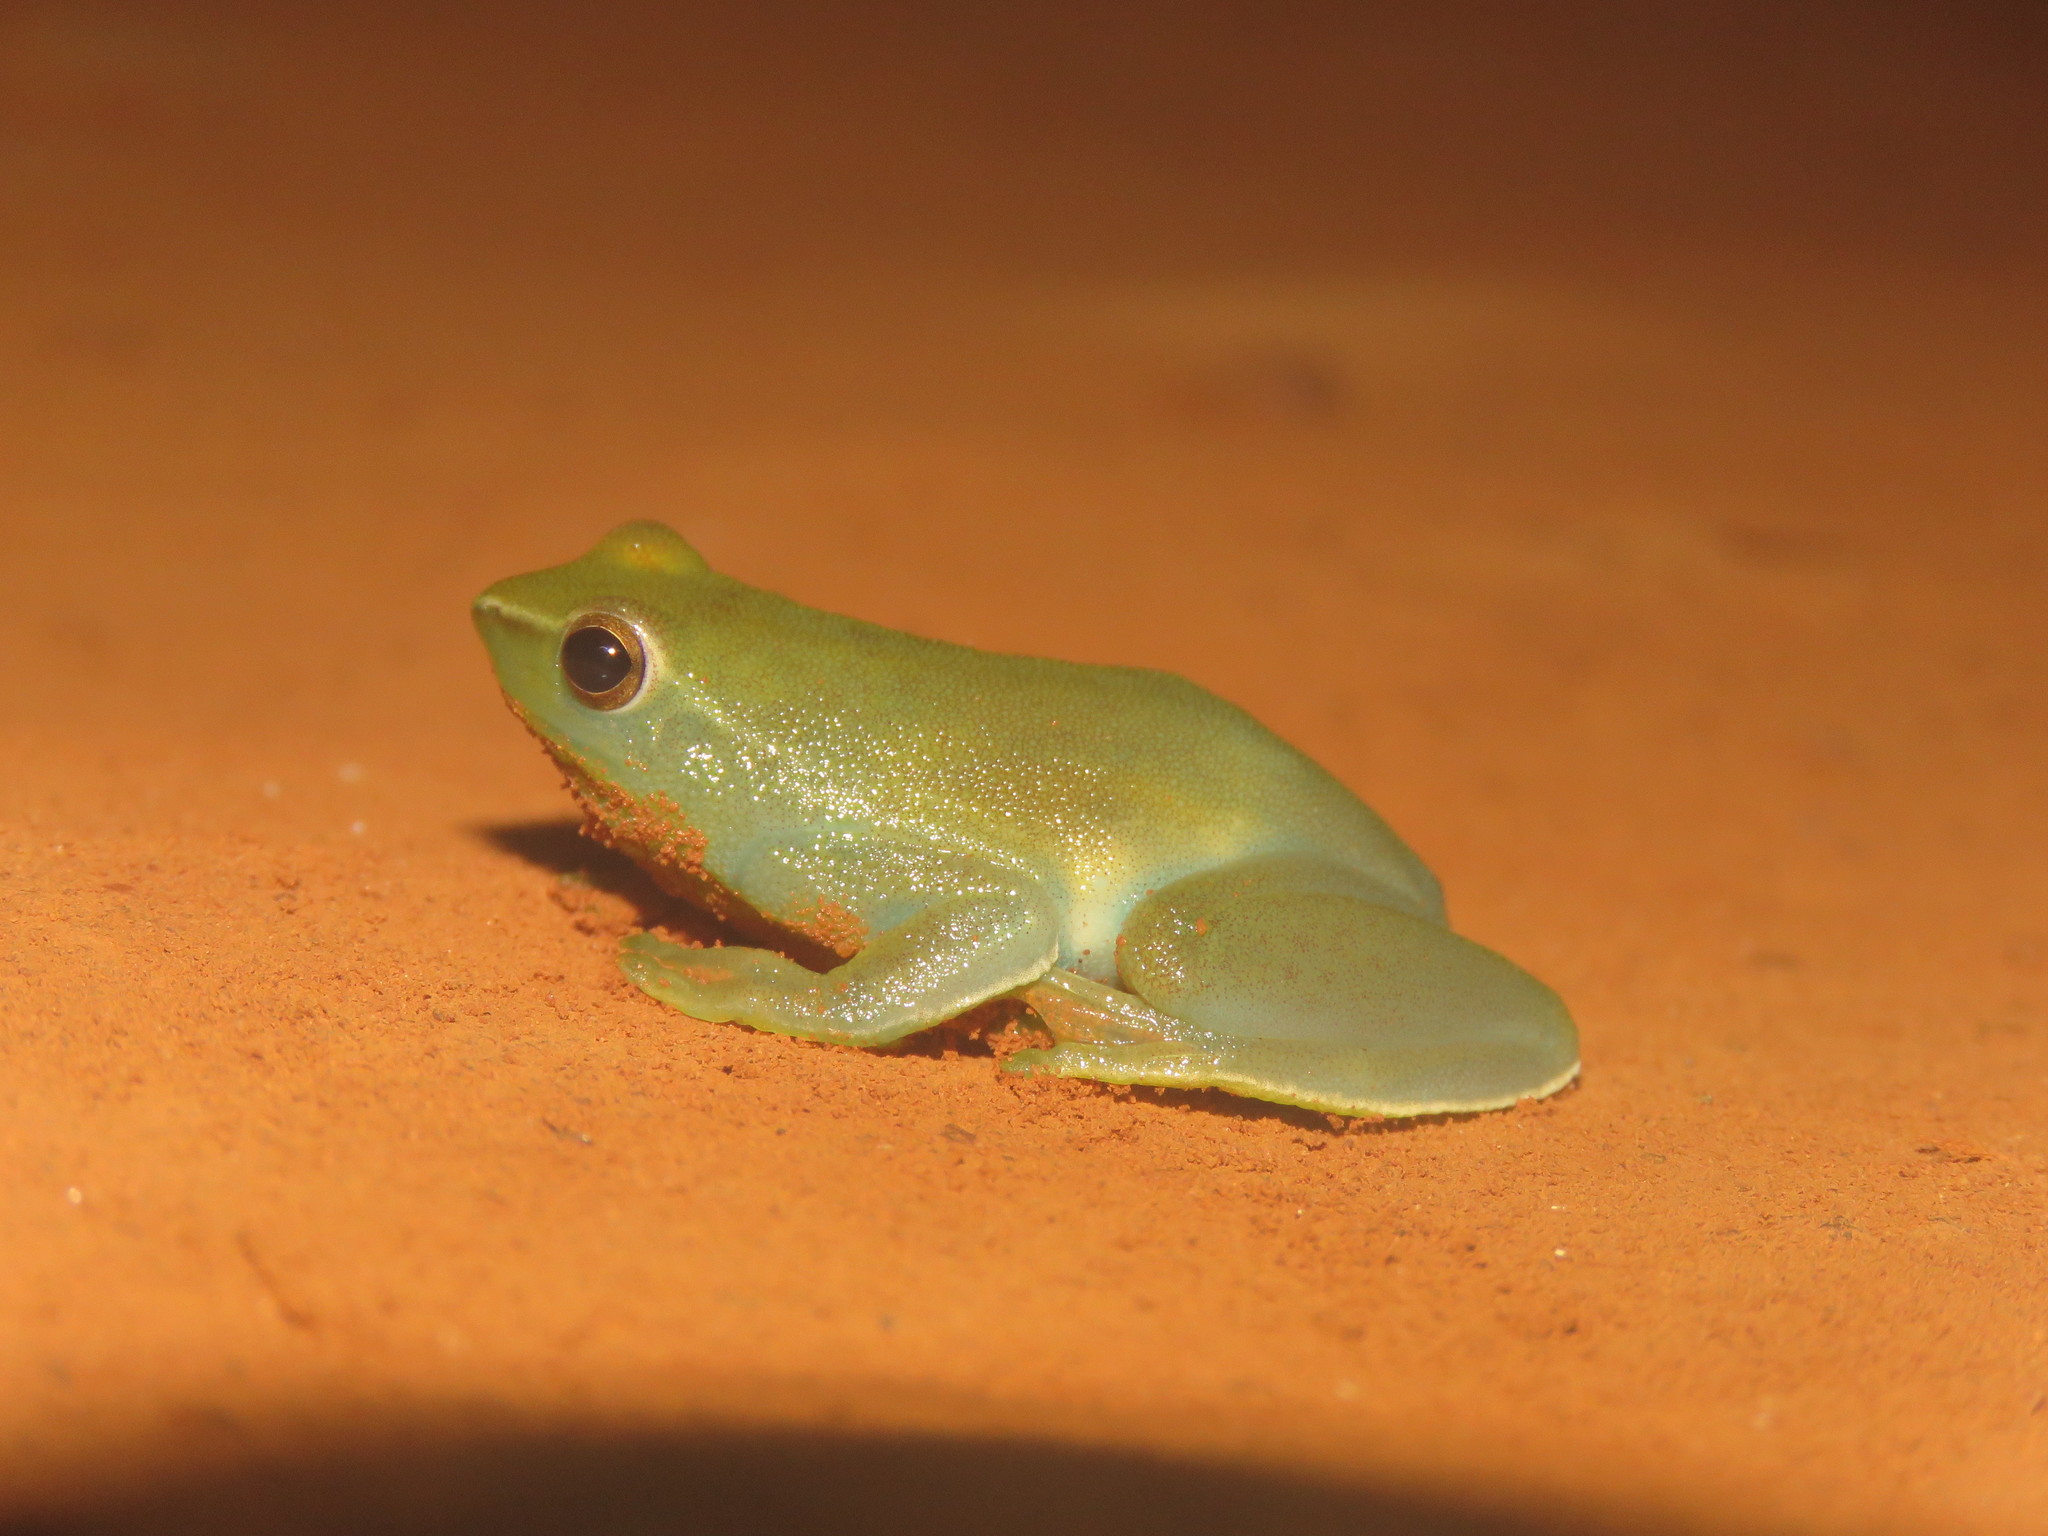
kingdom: Animalia
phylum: Chordata
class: Amphibia
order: Anura
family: Hylidae
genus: Sphaenorhynchus
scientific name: Sphaenorhynchus lacteus
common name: Orinoco lime treefrog
